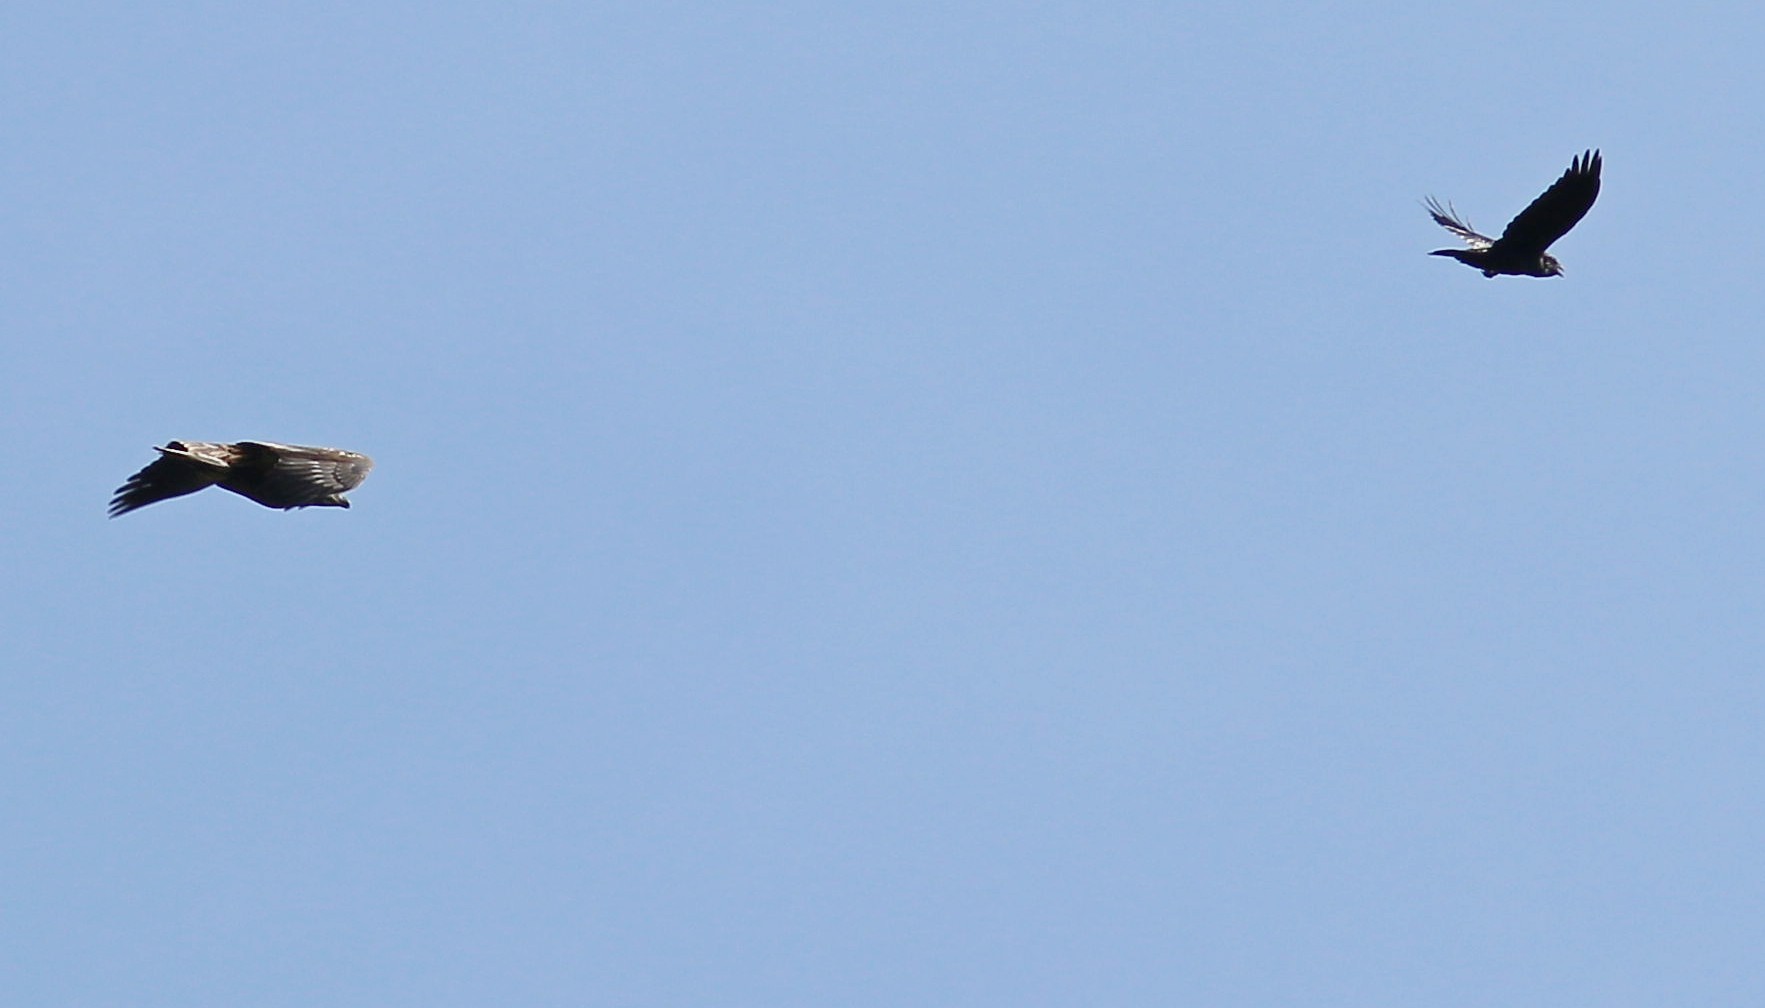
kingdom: Animalia
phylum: Chordata
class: Aves
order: Passeriformes
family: Corvidae
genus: Corvus
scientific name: Corvus corax
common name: Common raven
